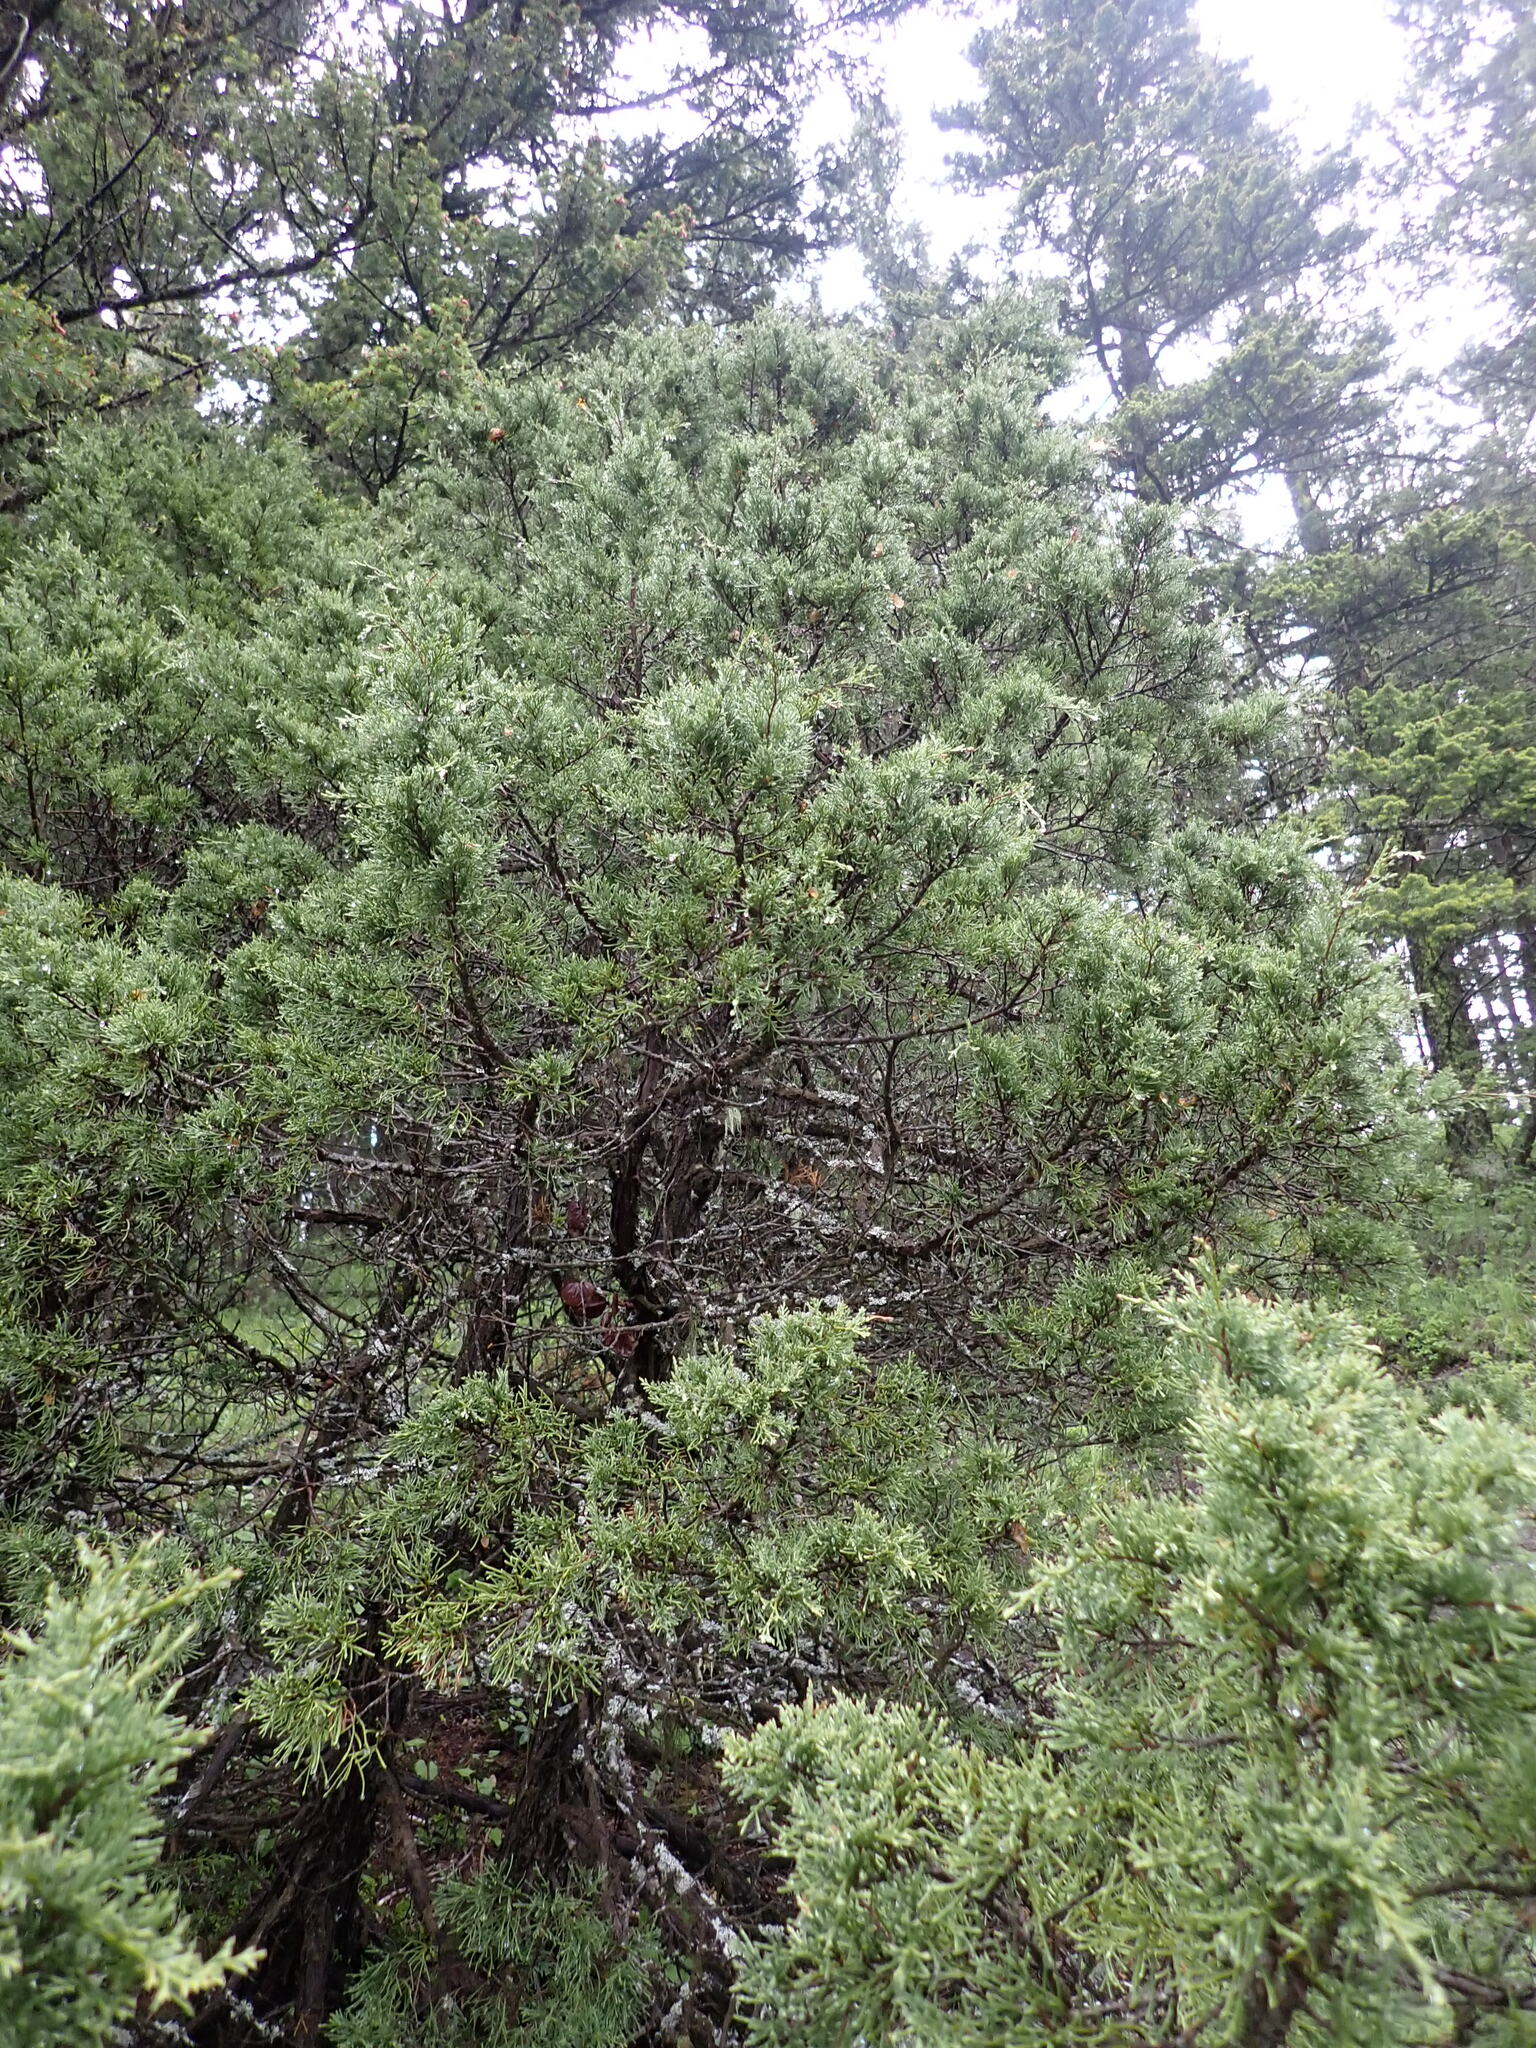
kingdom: Plantae
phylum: Tracheophyta
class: Pinopsida
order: Pinales
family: Cupressaceae
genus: Juniperus
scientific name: Juniperus scopulorum
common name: Rocky mountain juniper
